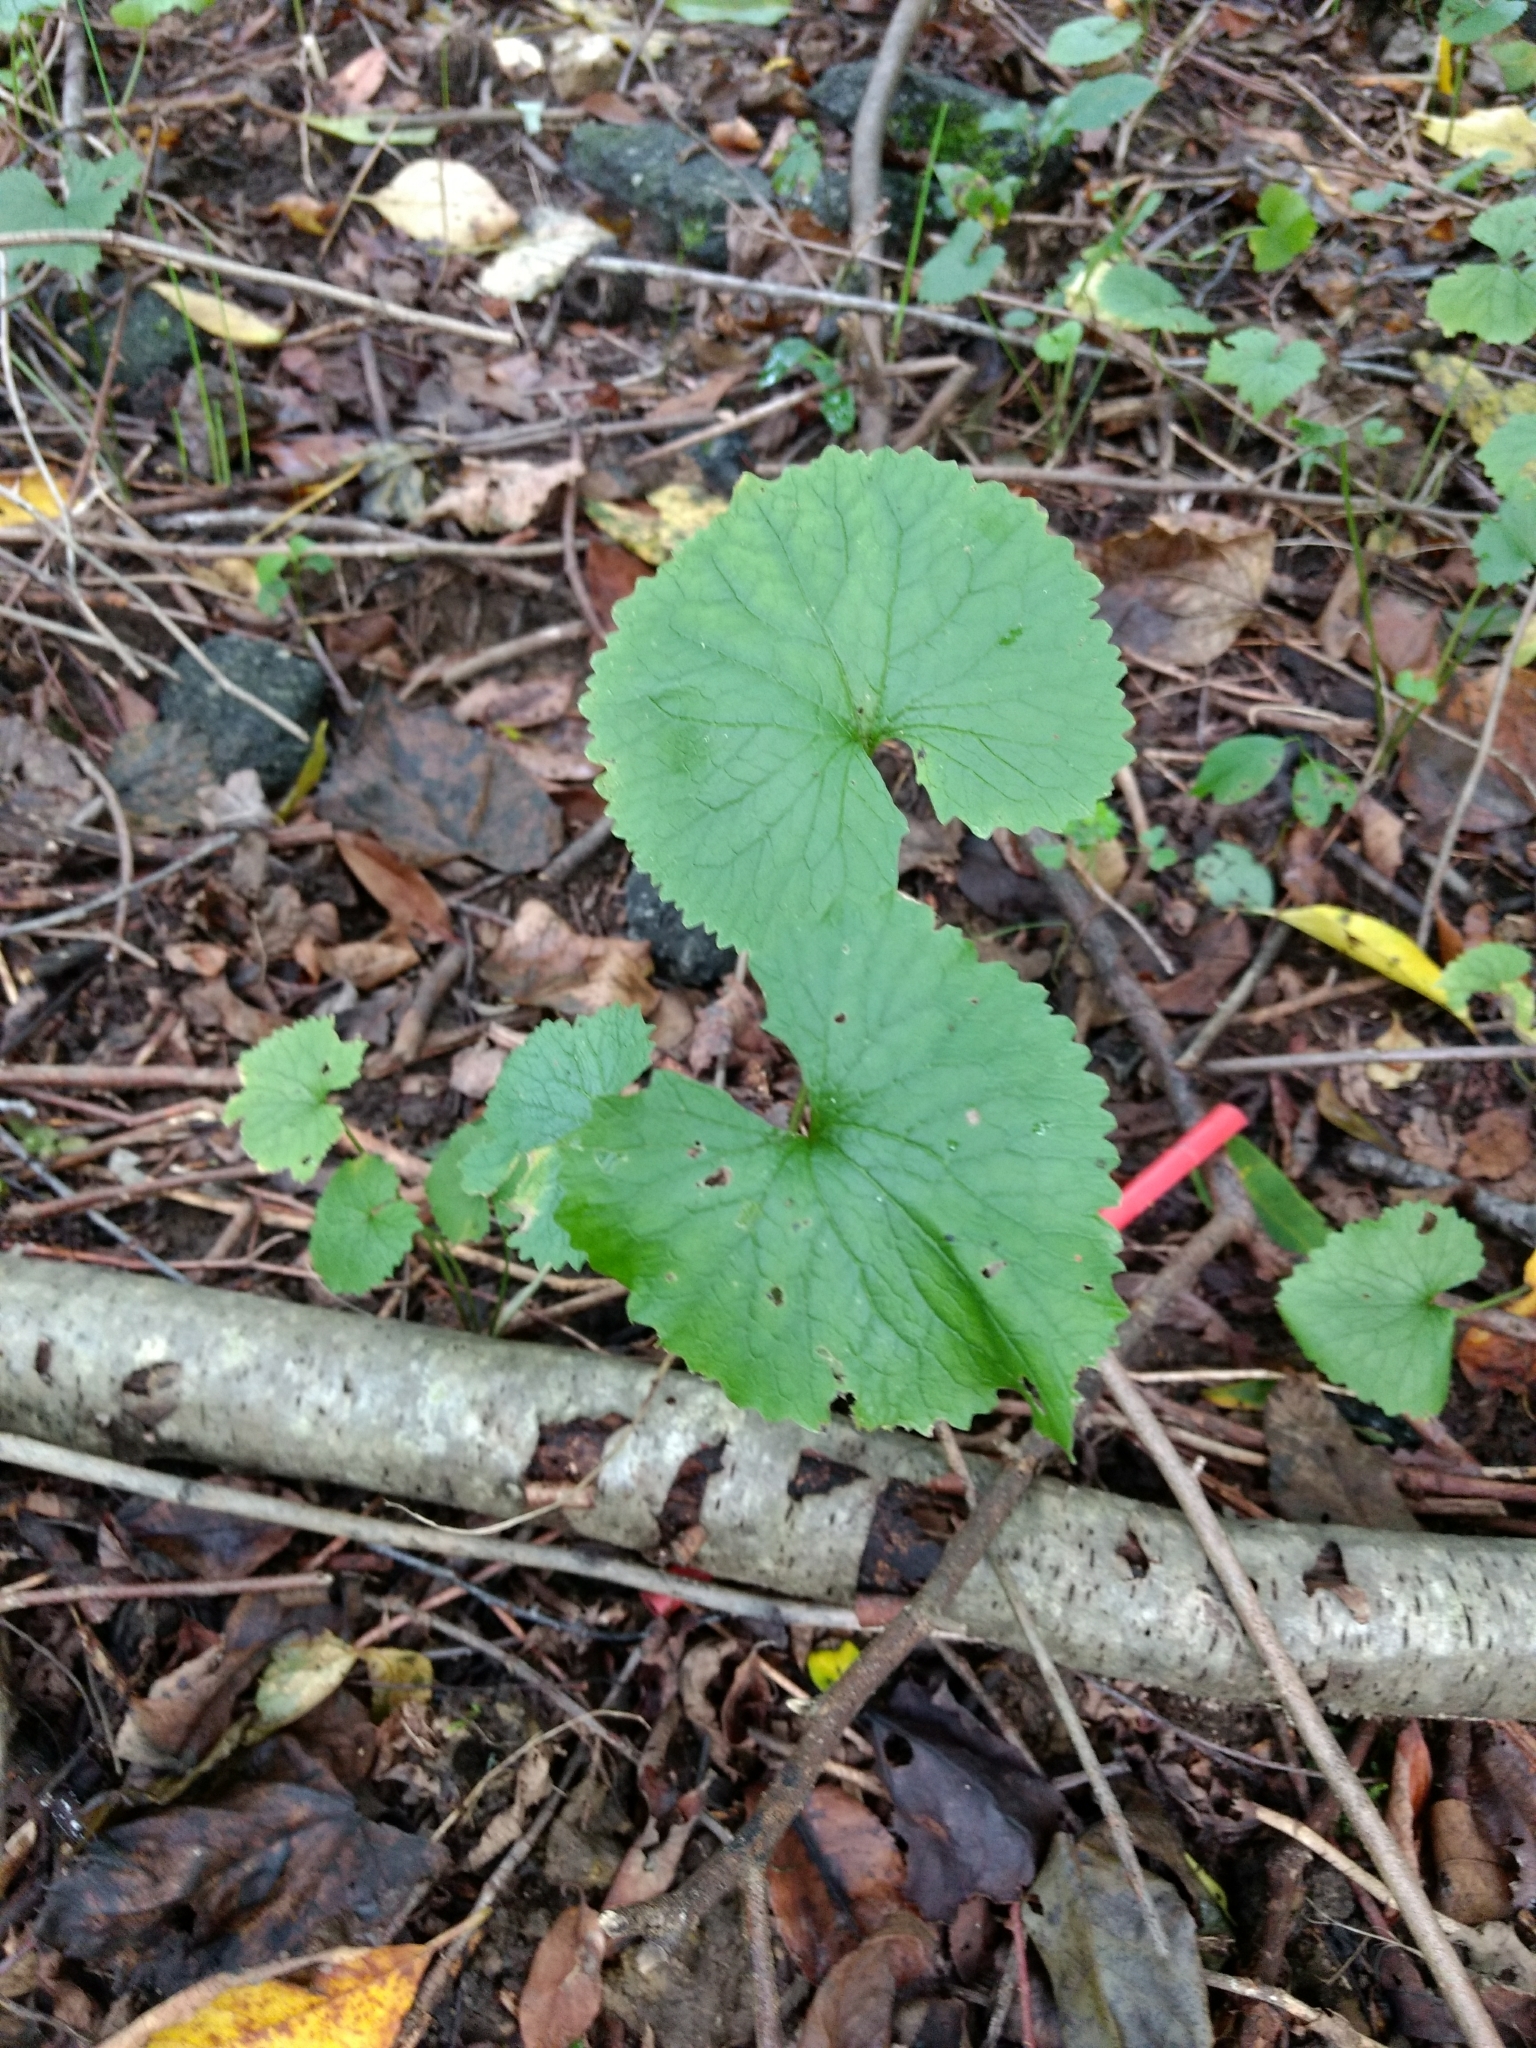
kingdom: Plantae
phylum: Tracheophyta
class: Magnoliopsida
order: Brassicales
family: Brassicaceae
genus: Alliaria
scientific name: Alliaria petiolata
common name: Garlic mustard
